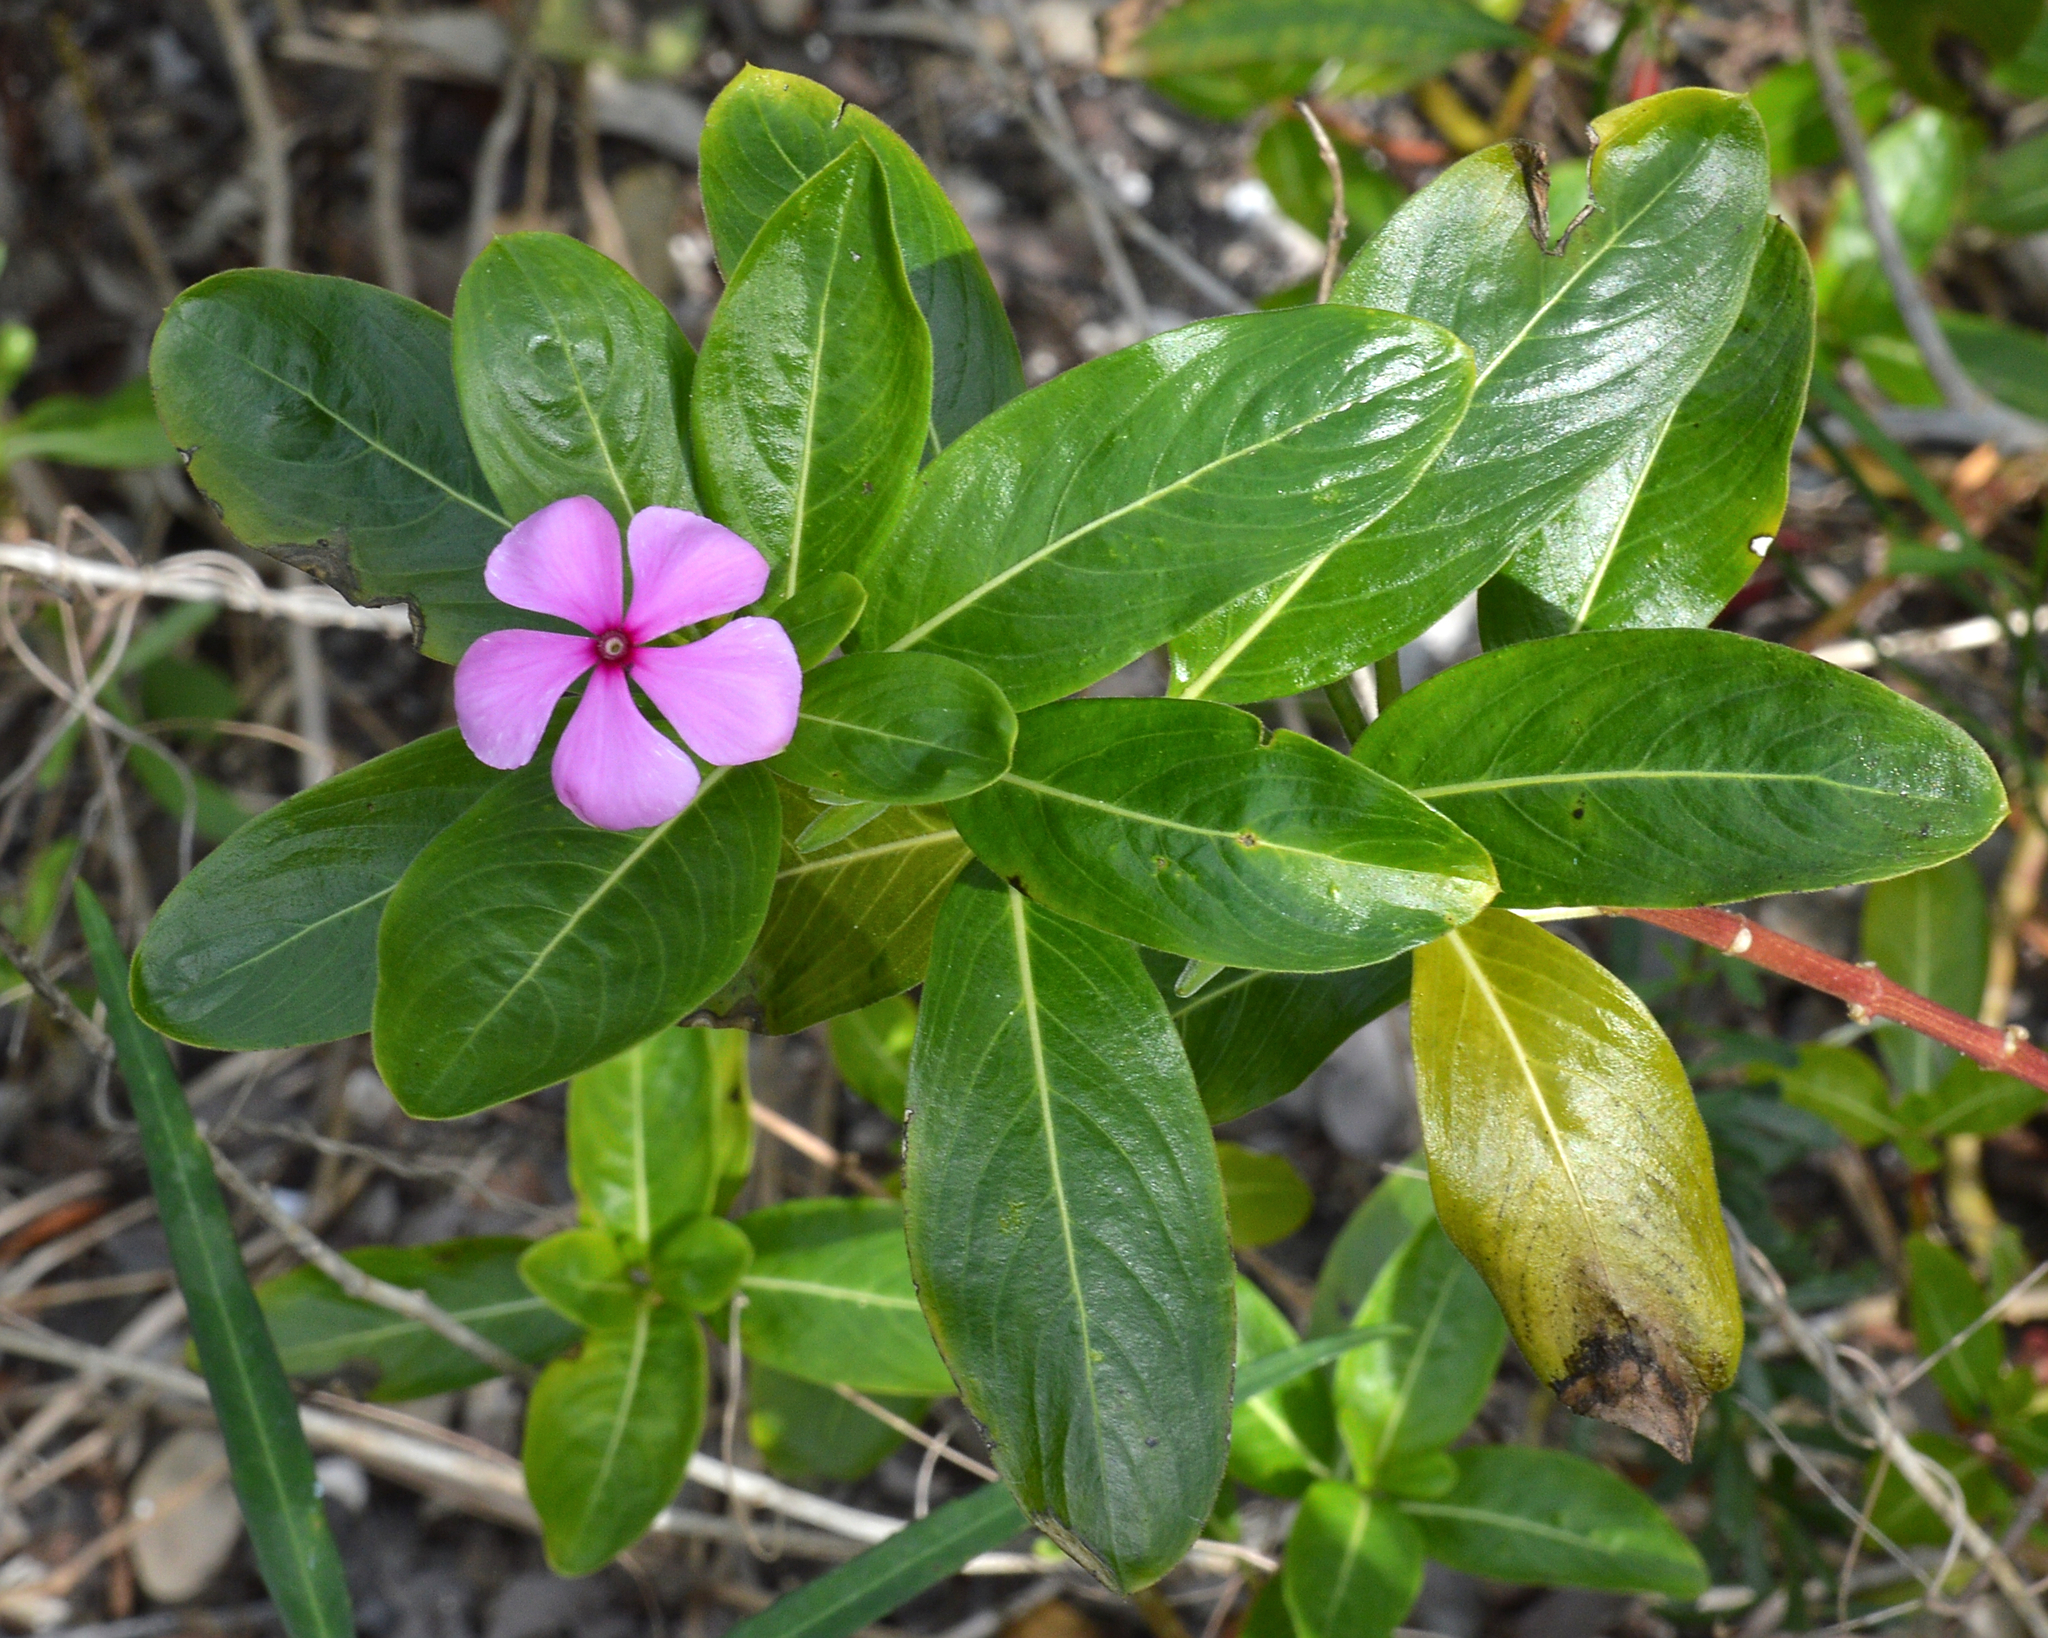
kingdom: Plantae
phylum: Tracheophyta
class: Magnoliopsida
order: Gentianales
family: Apocynaceae
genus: Catharanthus
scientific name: Catharanthus roseus
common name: Madagascar periwinkle
